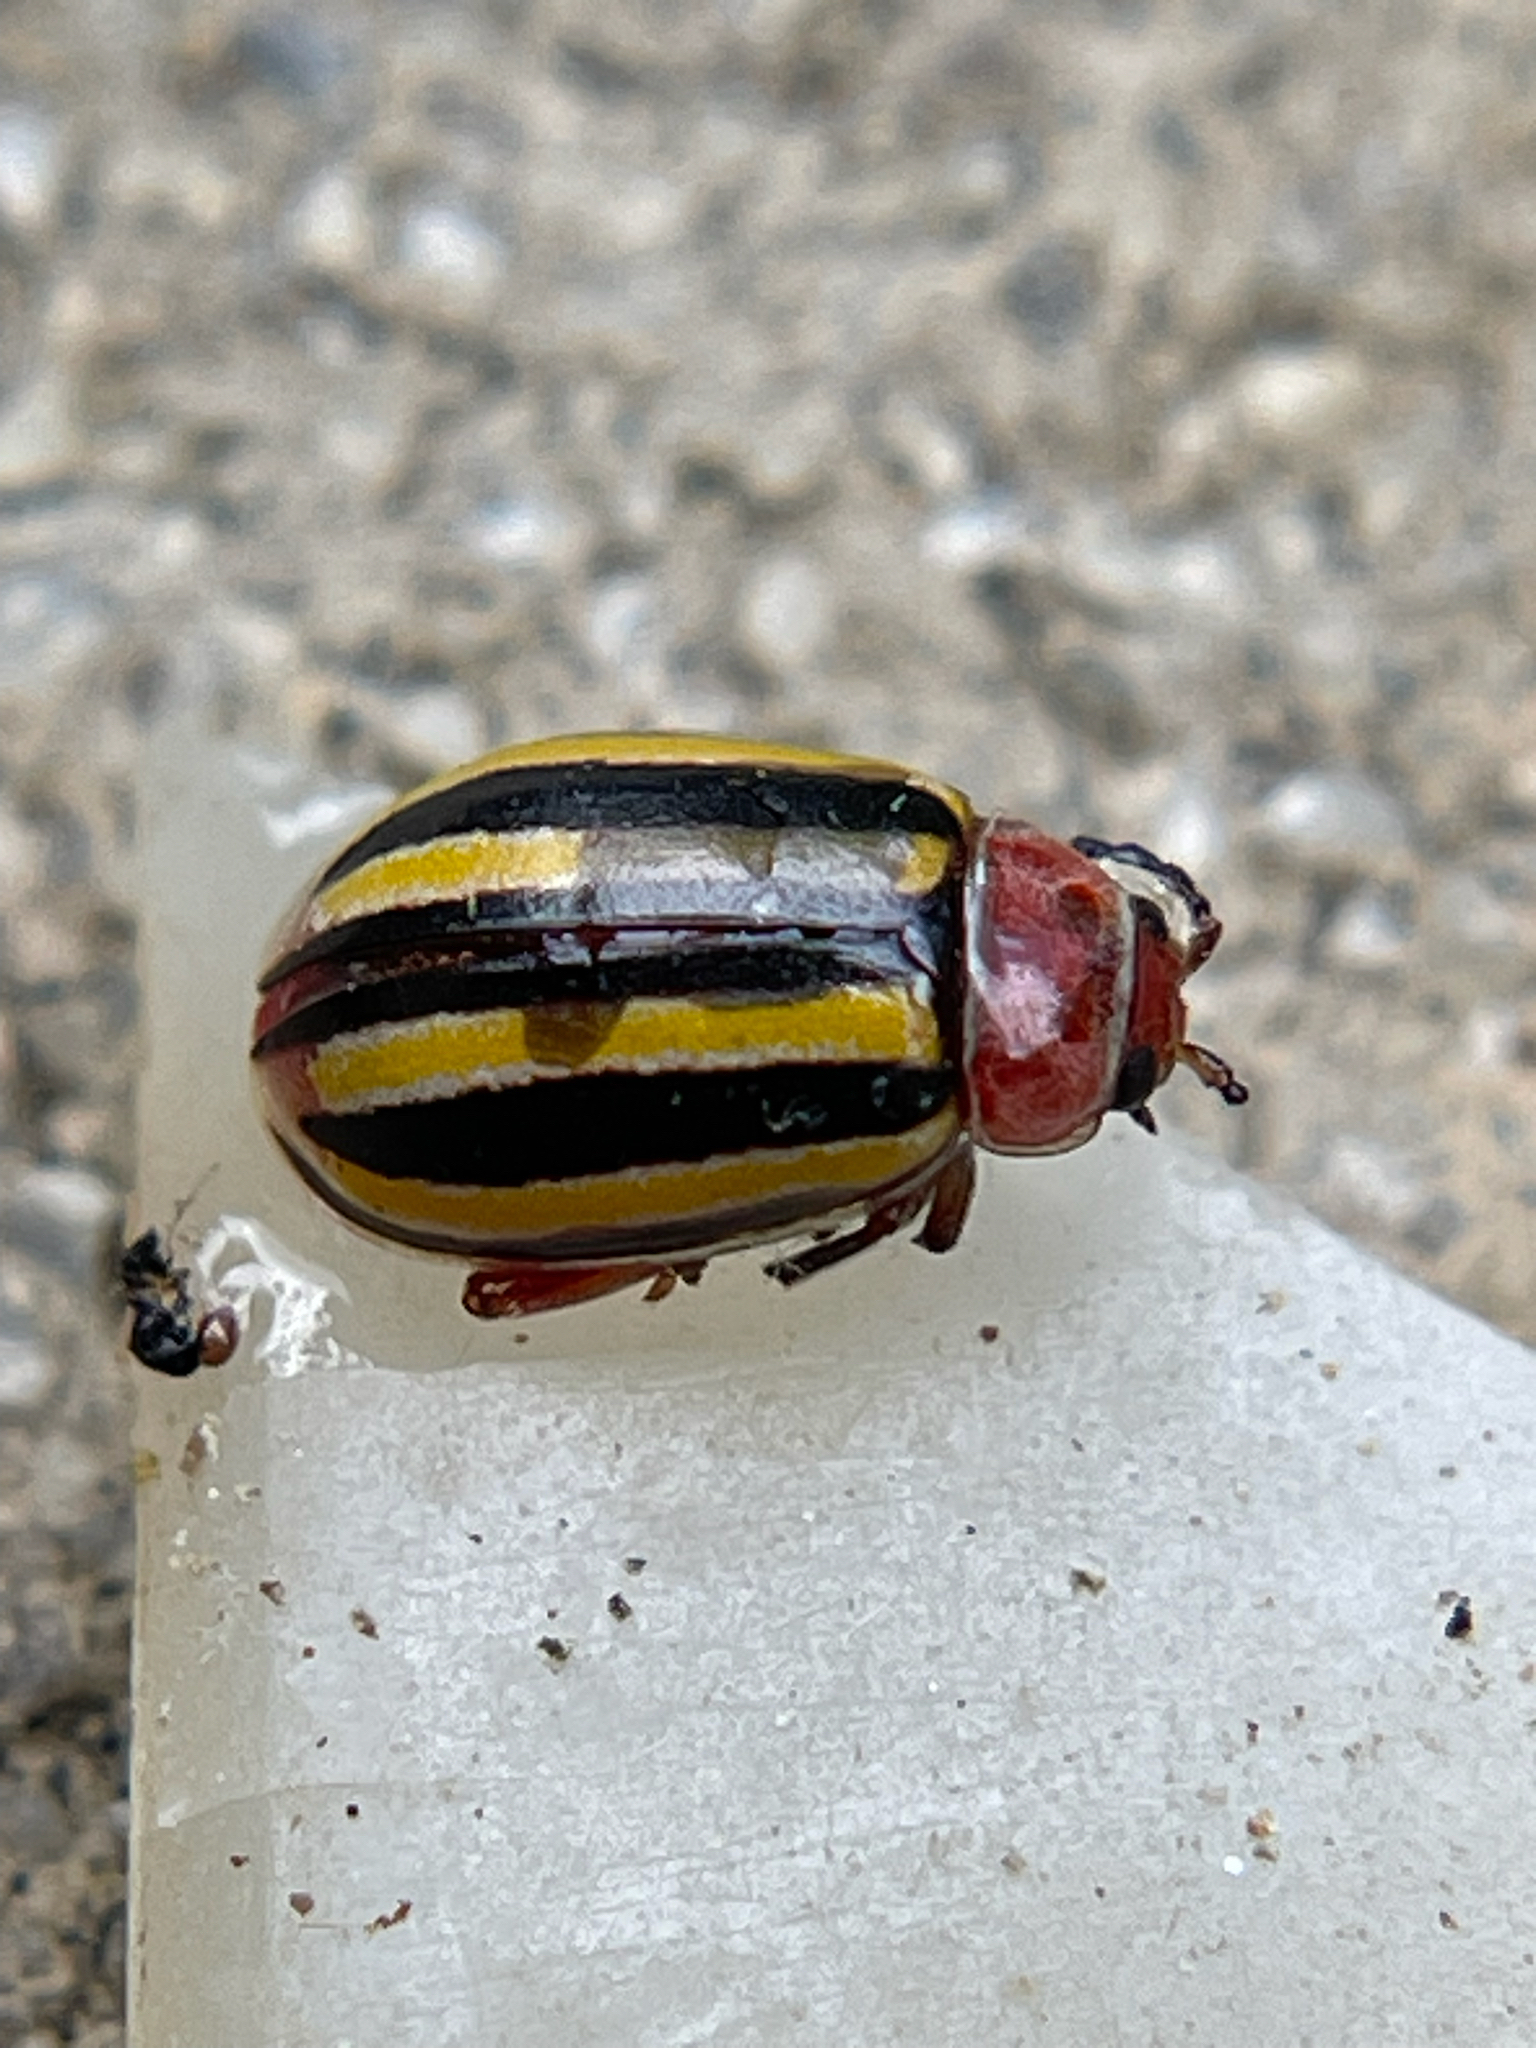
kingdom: Animalia
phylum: Arthropoda
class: Insecta
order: Coleoptera
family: Chrysomelidae
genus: Disonycha
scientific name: Disonycha admirabila
